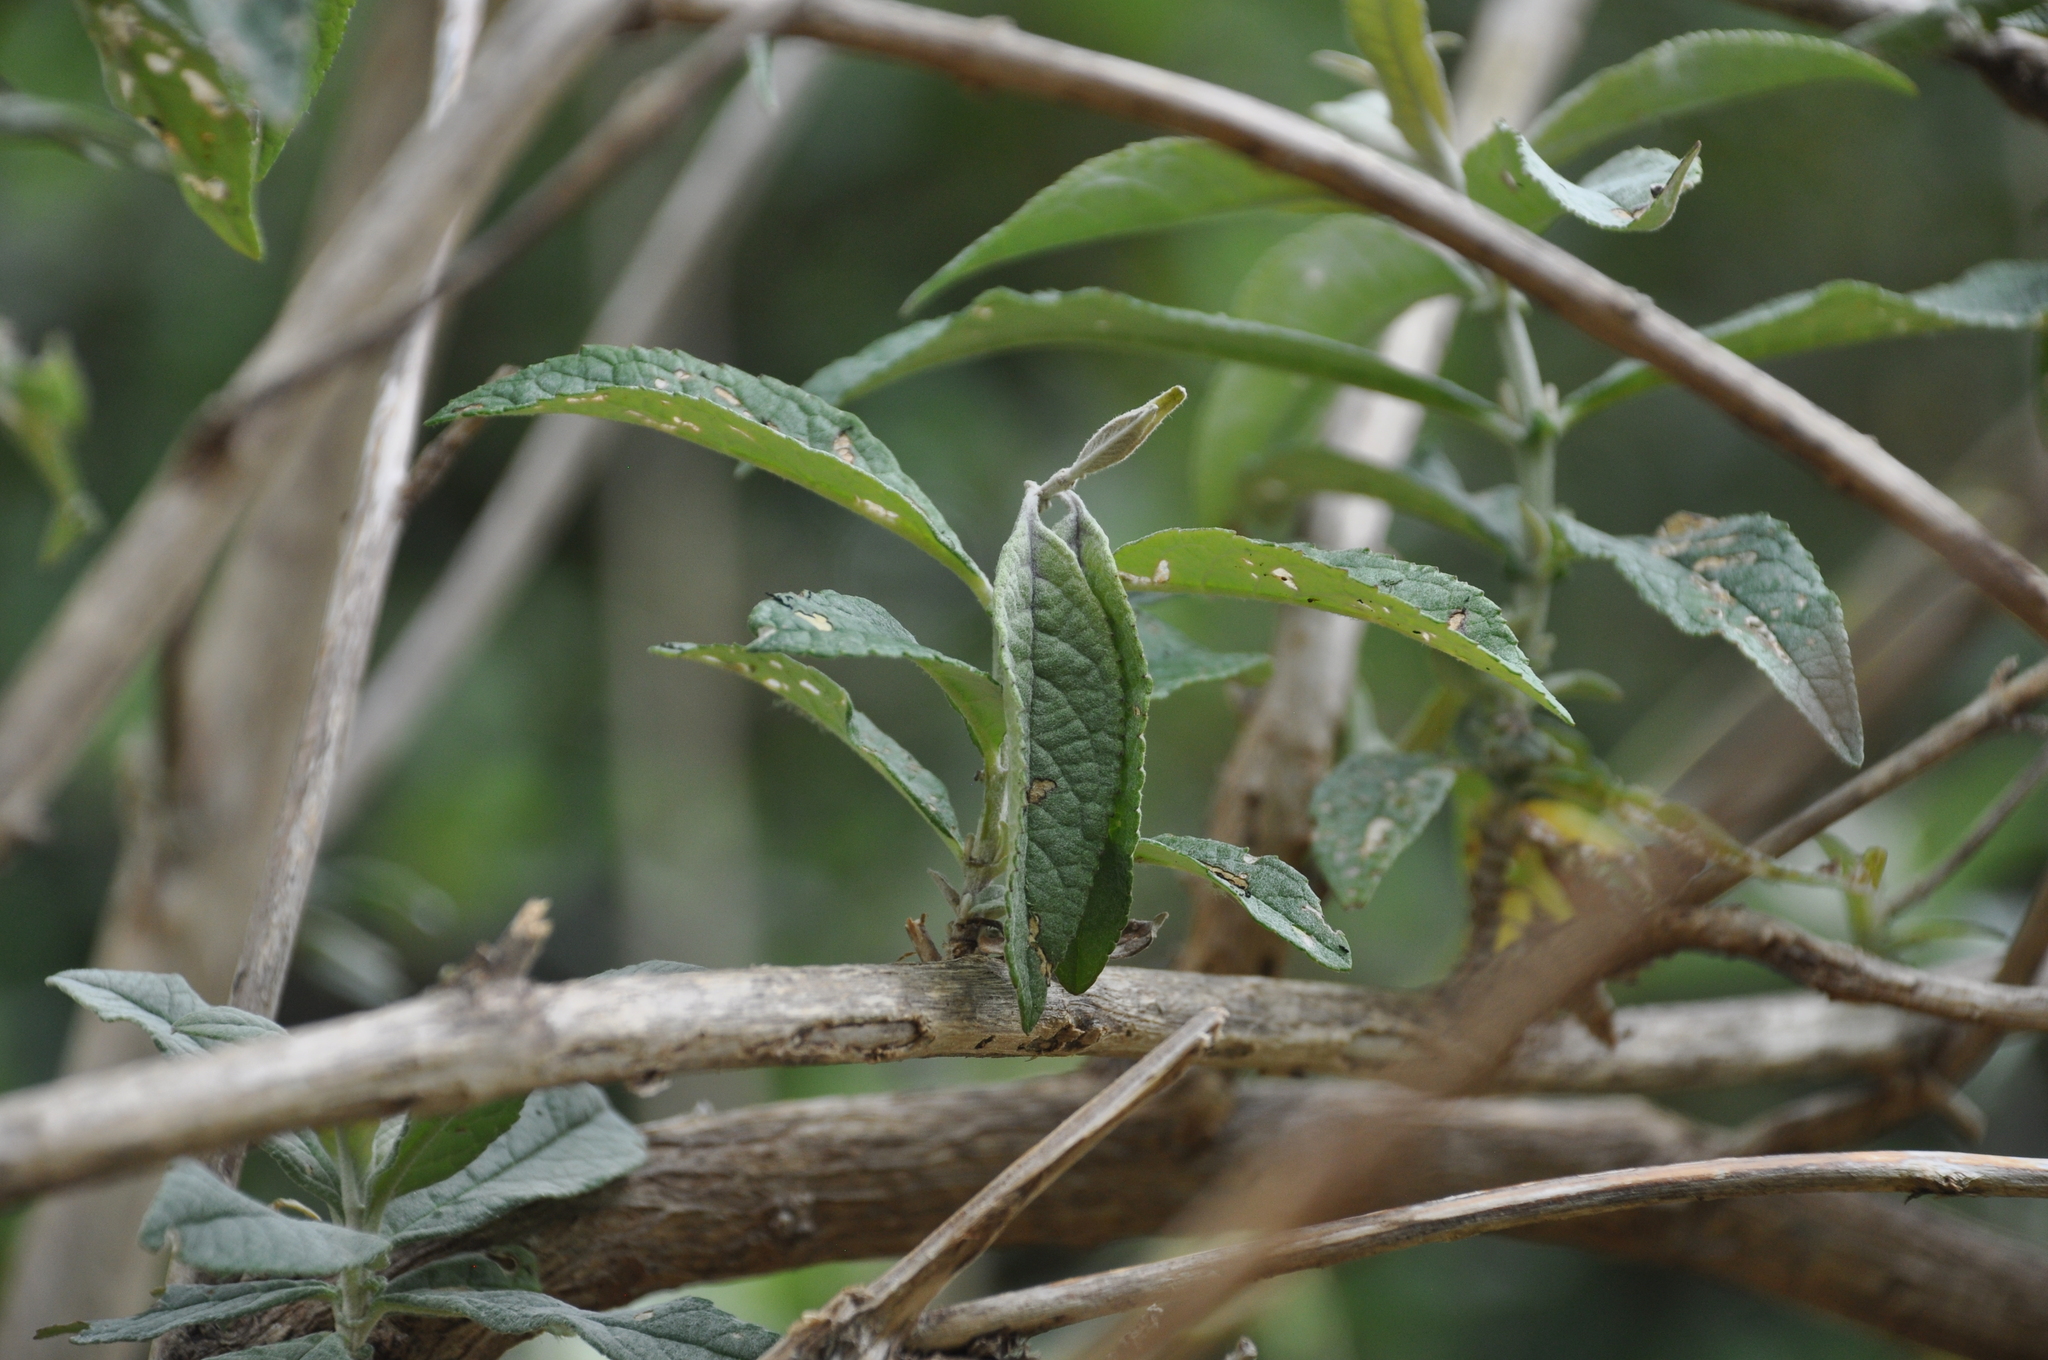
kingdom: Plantae
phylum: Tracheophyta
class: Magnoliopsida
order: Lamiales
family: Scrophulariaceae
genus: Buddleja
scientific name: Buddleja davidii
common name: Butterfly-bush
